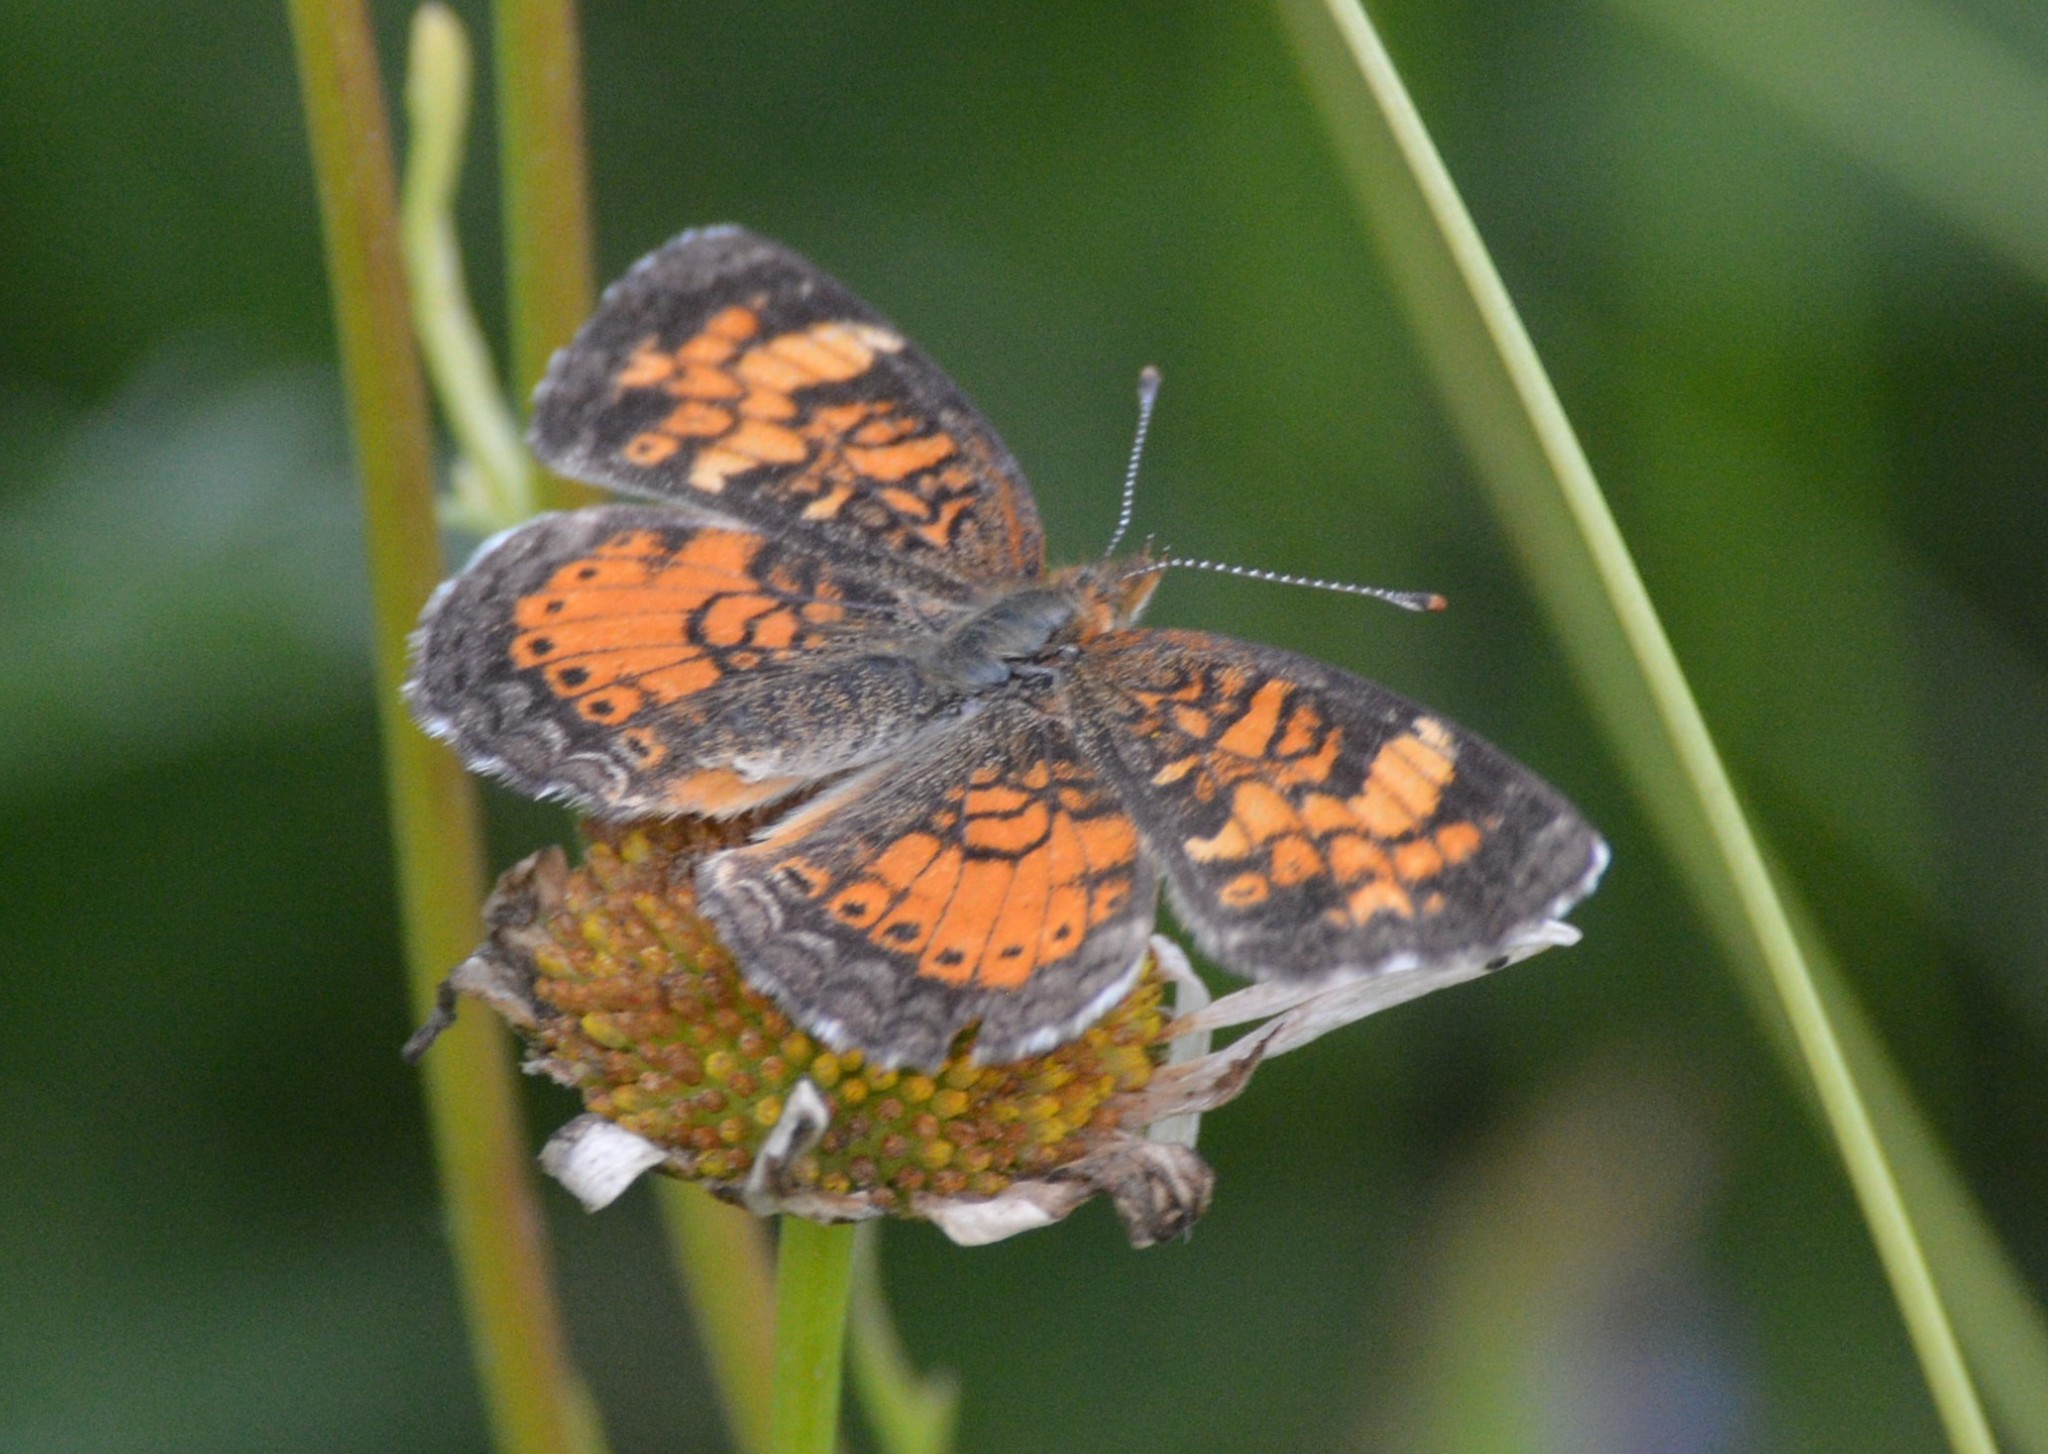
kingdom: Animalia
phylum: Arthropoda
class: Insecta
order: Lepidoptera
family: Nymphalidae
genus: Phyciodes
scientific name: Phyciodes tharos
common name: Pearl crescent
